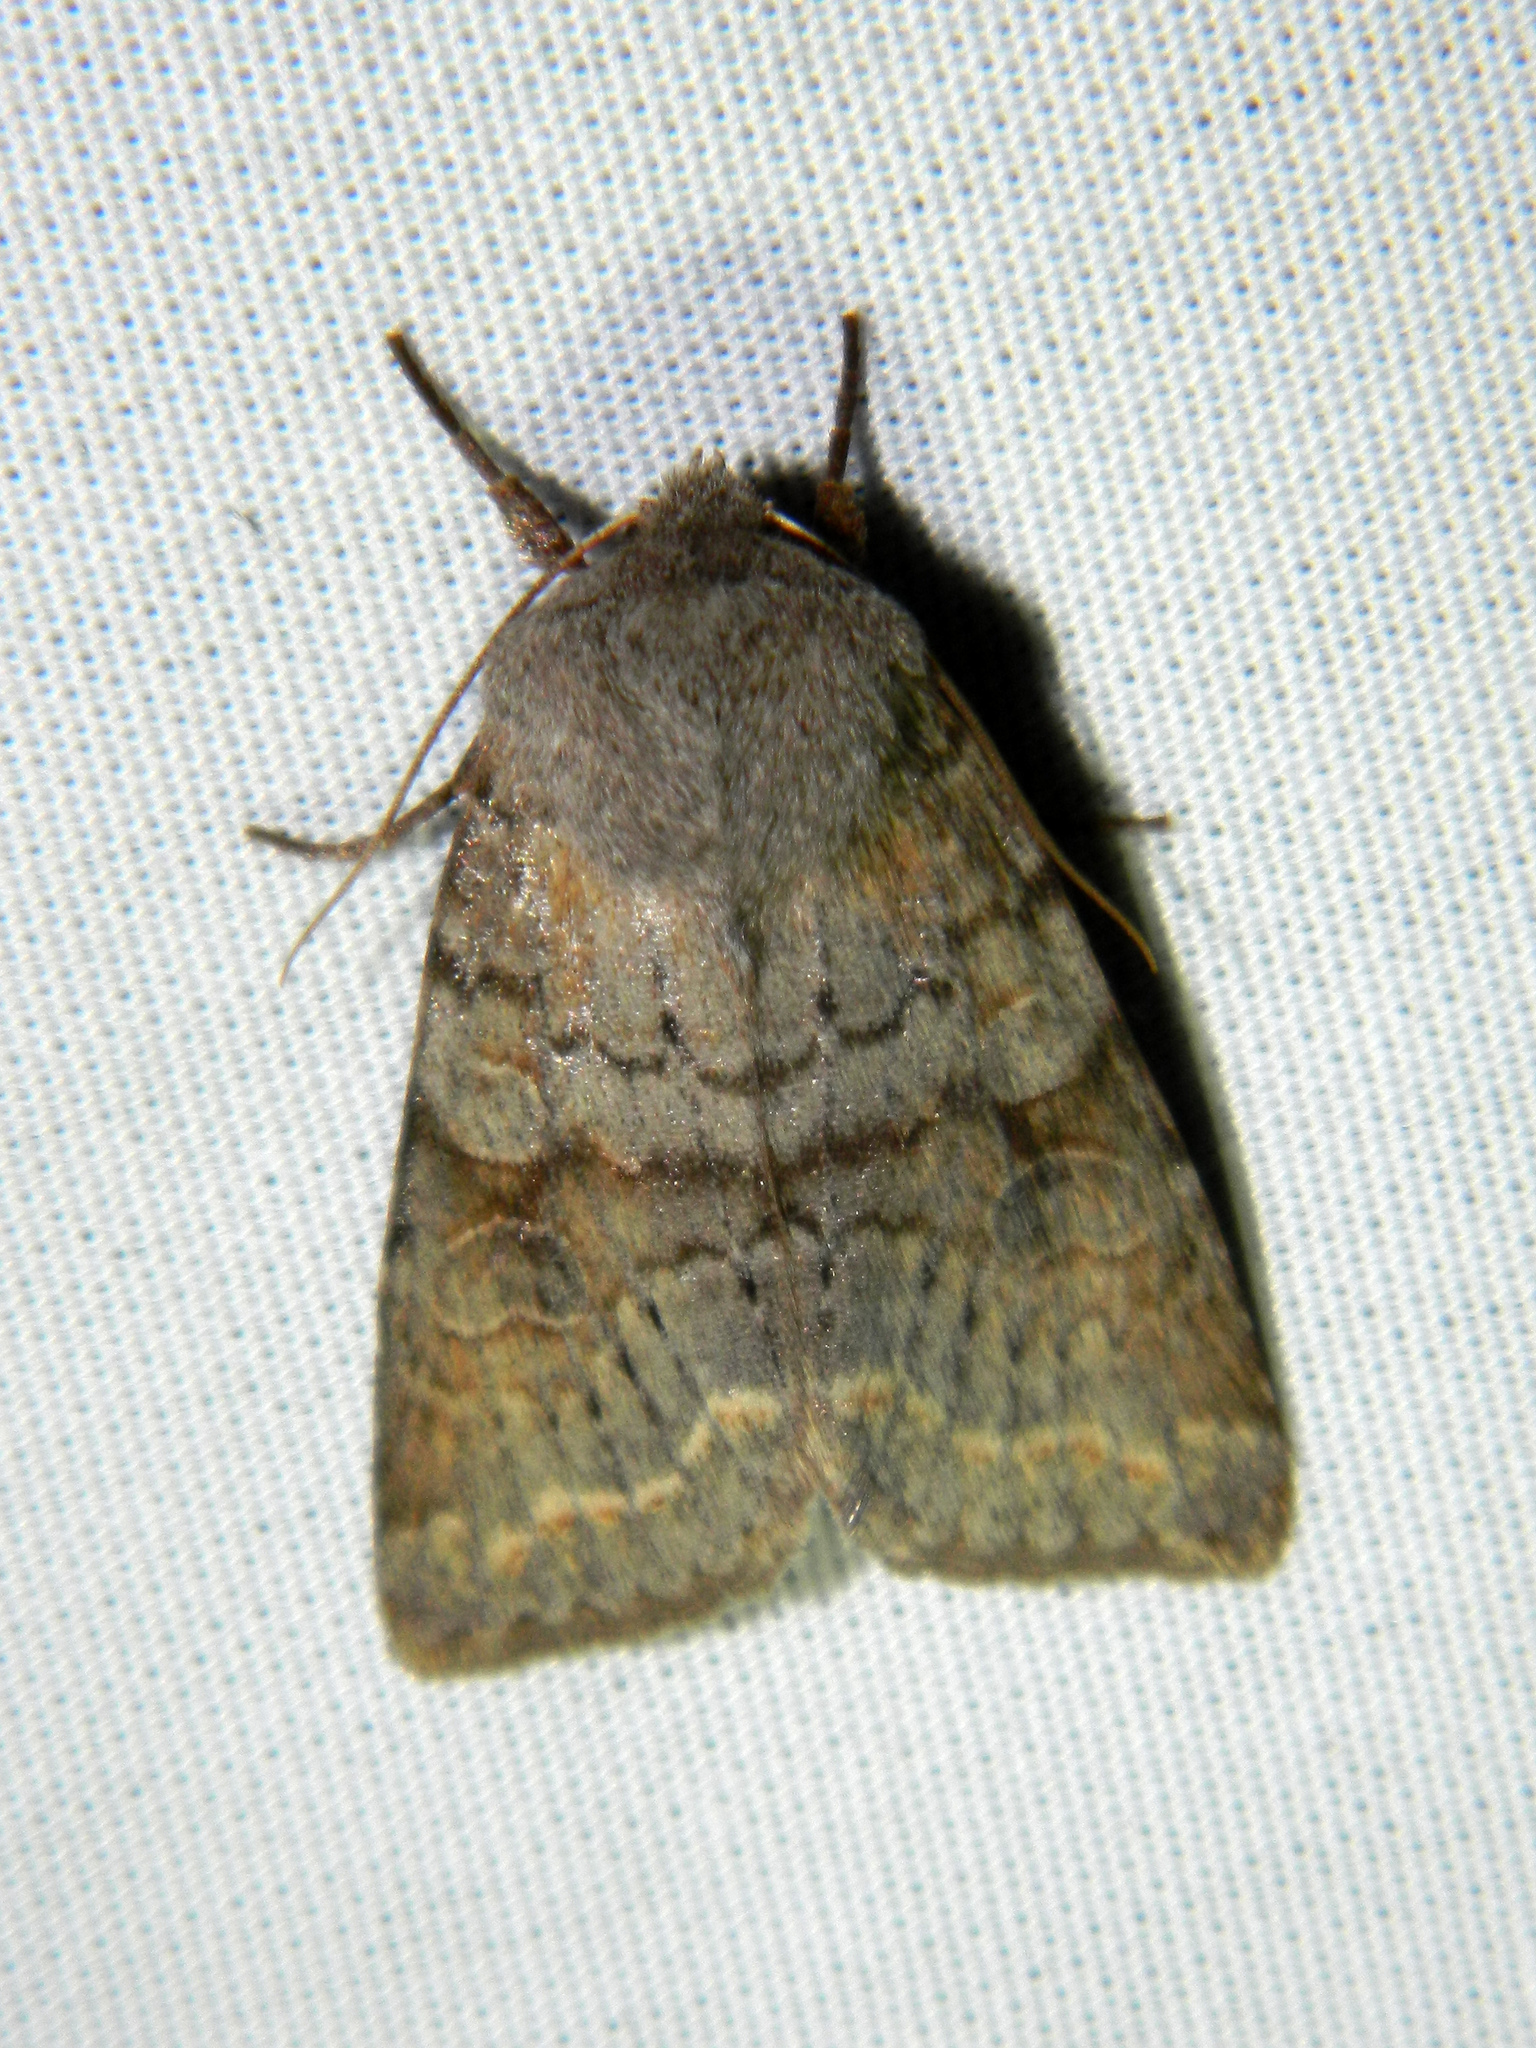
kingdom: Animalia
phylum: Arthropoda
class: Insecta
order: Lepidoptera
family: Noctuidae
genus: Orthosia
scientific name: Orthosia revicta
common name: Rusty whitesided caterpillar
